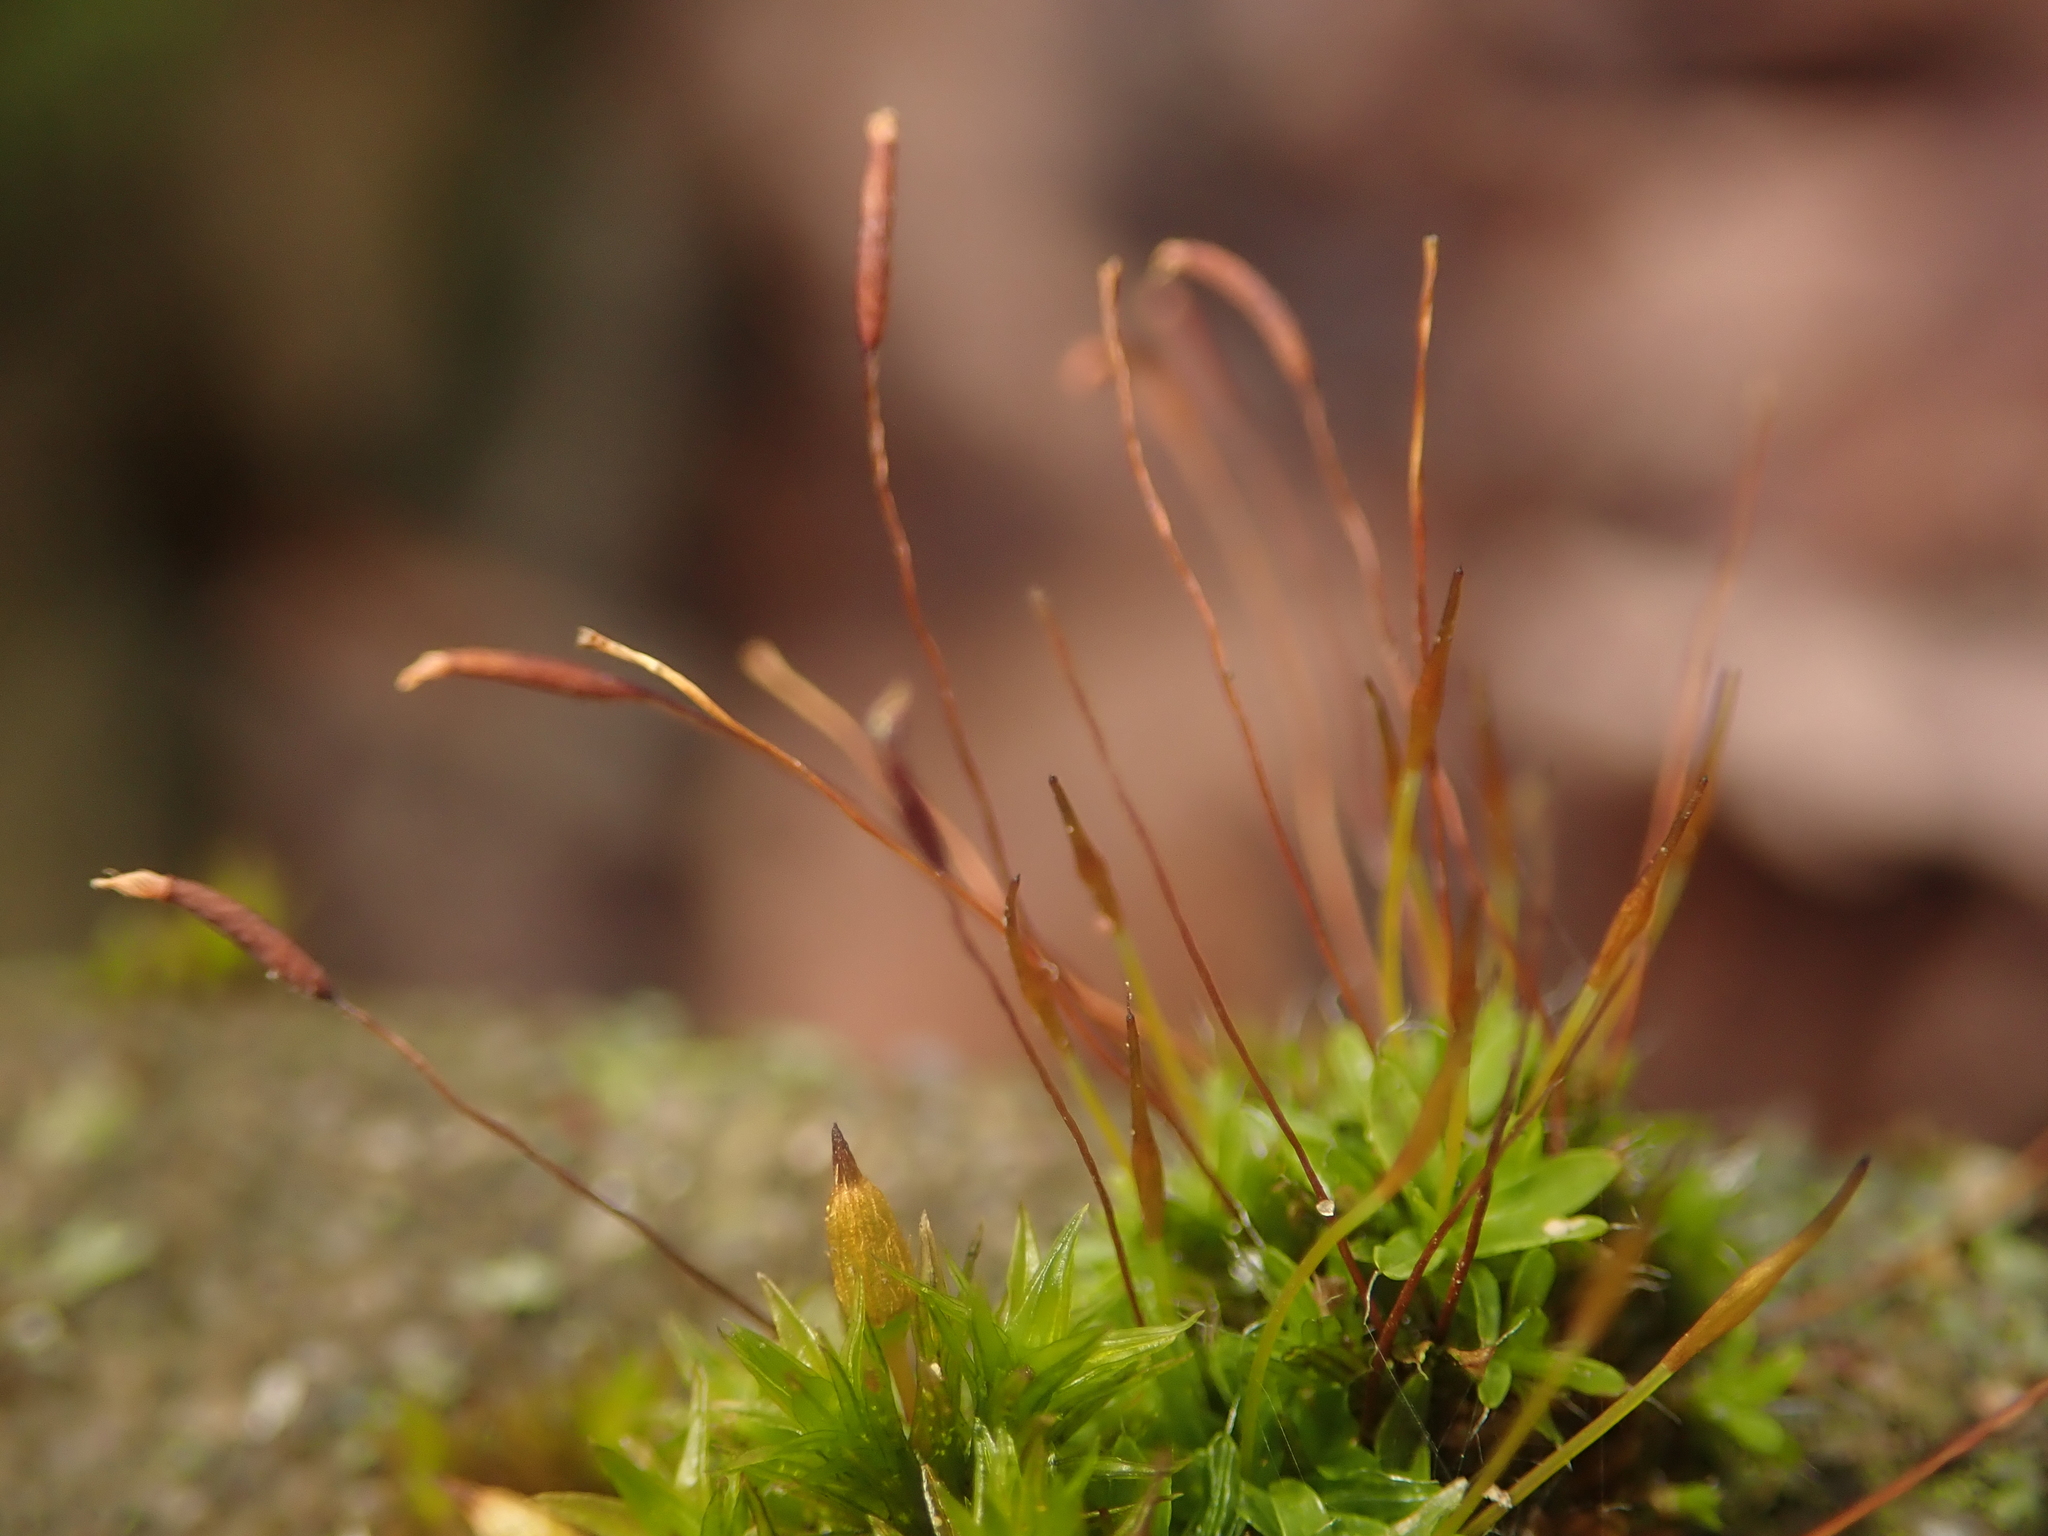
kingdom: Plantae
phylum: Bryophyta
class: Bryopsida
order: Pottiales
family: Pottiaceae
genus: Tortula
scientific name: Tortula muralis
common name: Wall screw-moss
